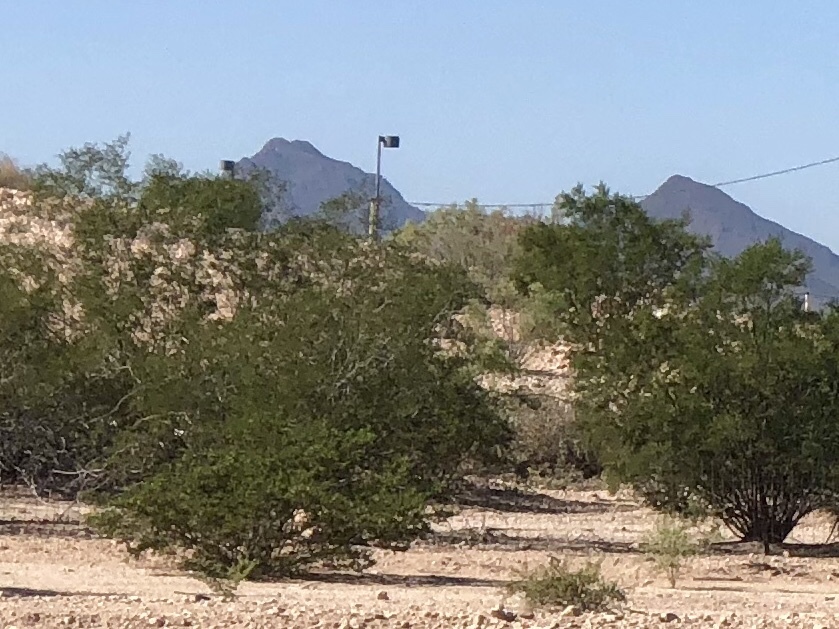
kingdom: Plantae
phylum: Tracheophyta
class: Magnoliopsida
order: Zygophyllales
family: Zygophyllaceae
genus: Larrea
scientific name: Larrea tridentata
